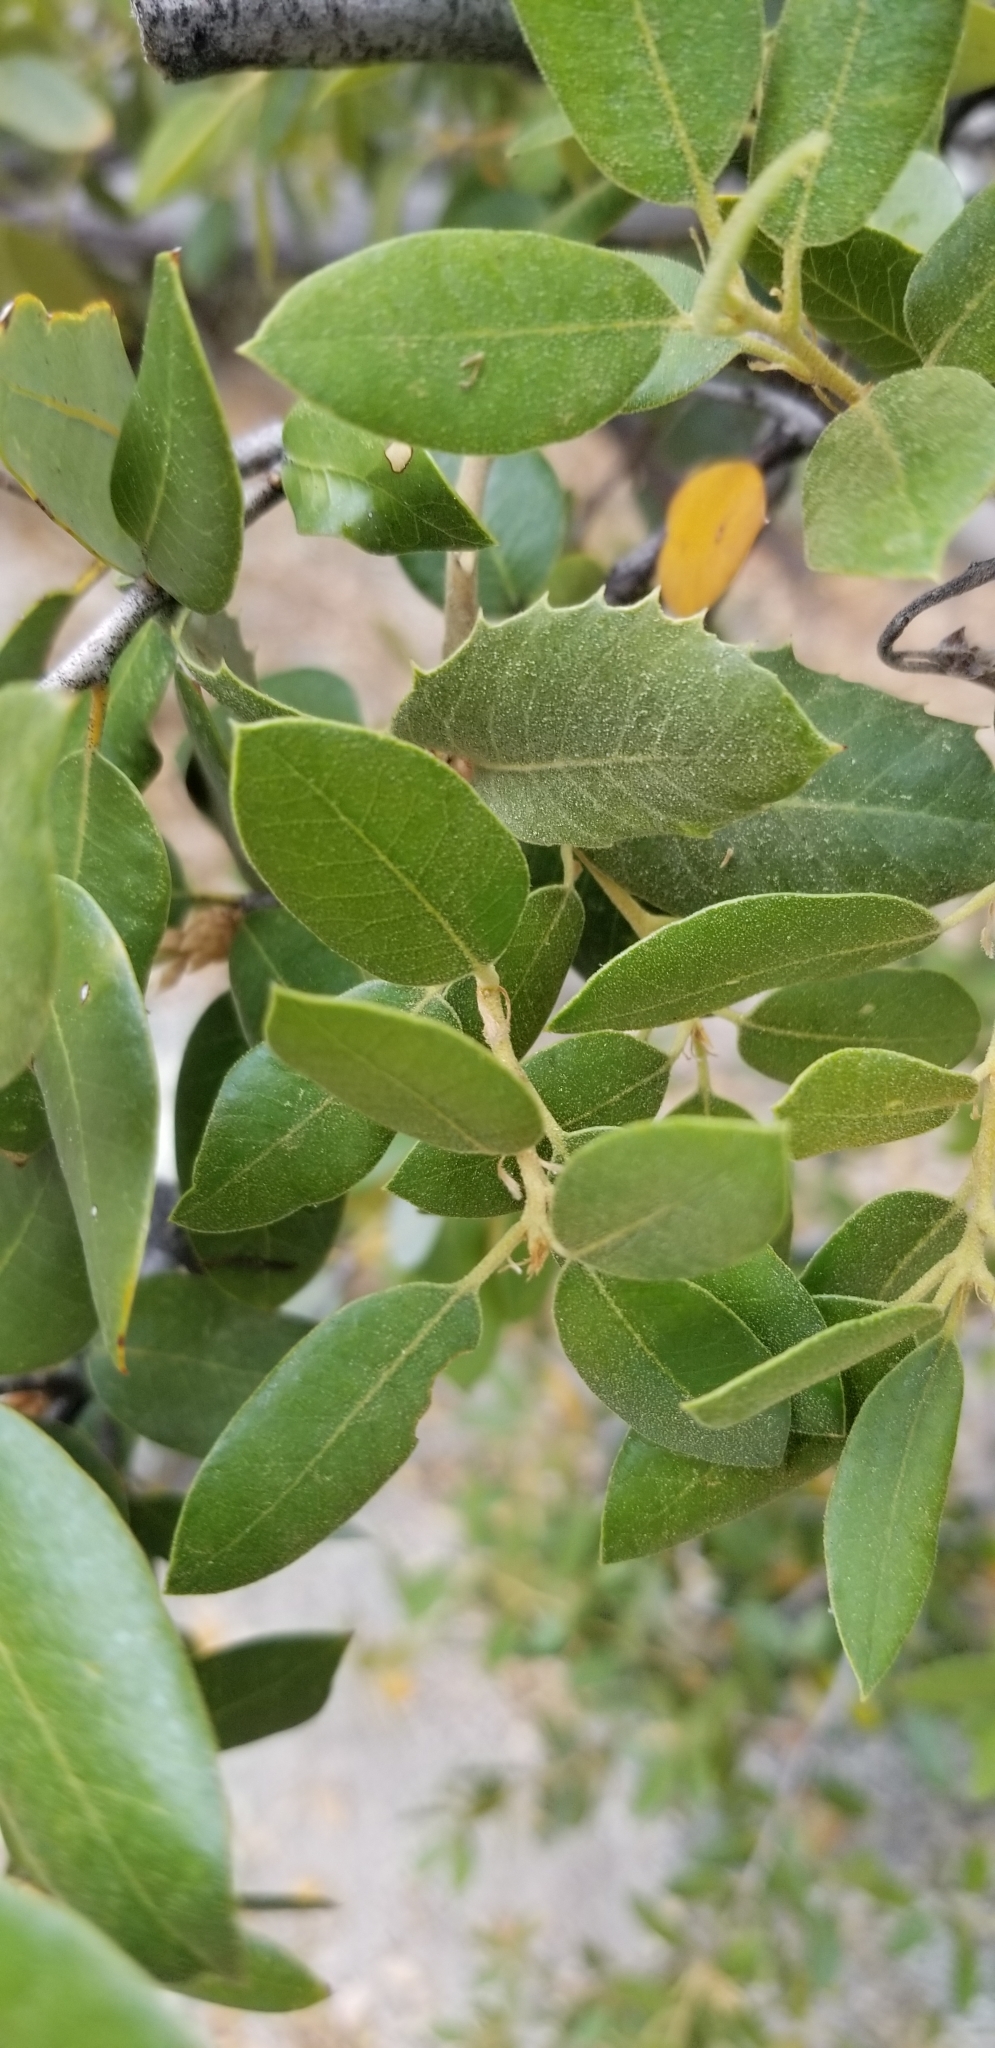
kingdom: Plantae
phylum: Tracheophyta
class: Magnoliopsida
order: Fagales
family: Fagaceae
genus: Quercus
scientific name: Quercus chrysolepis
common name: Canyon live oak
